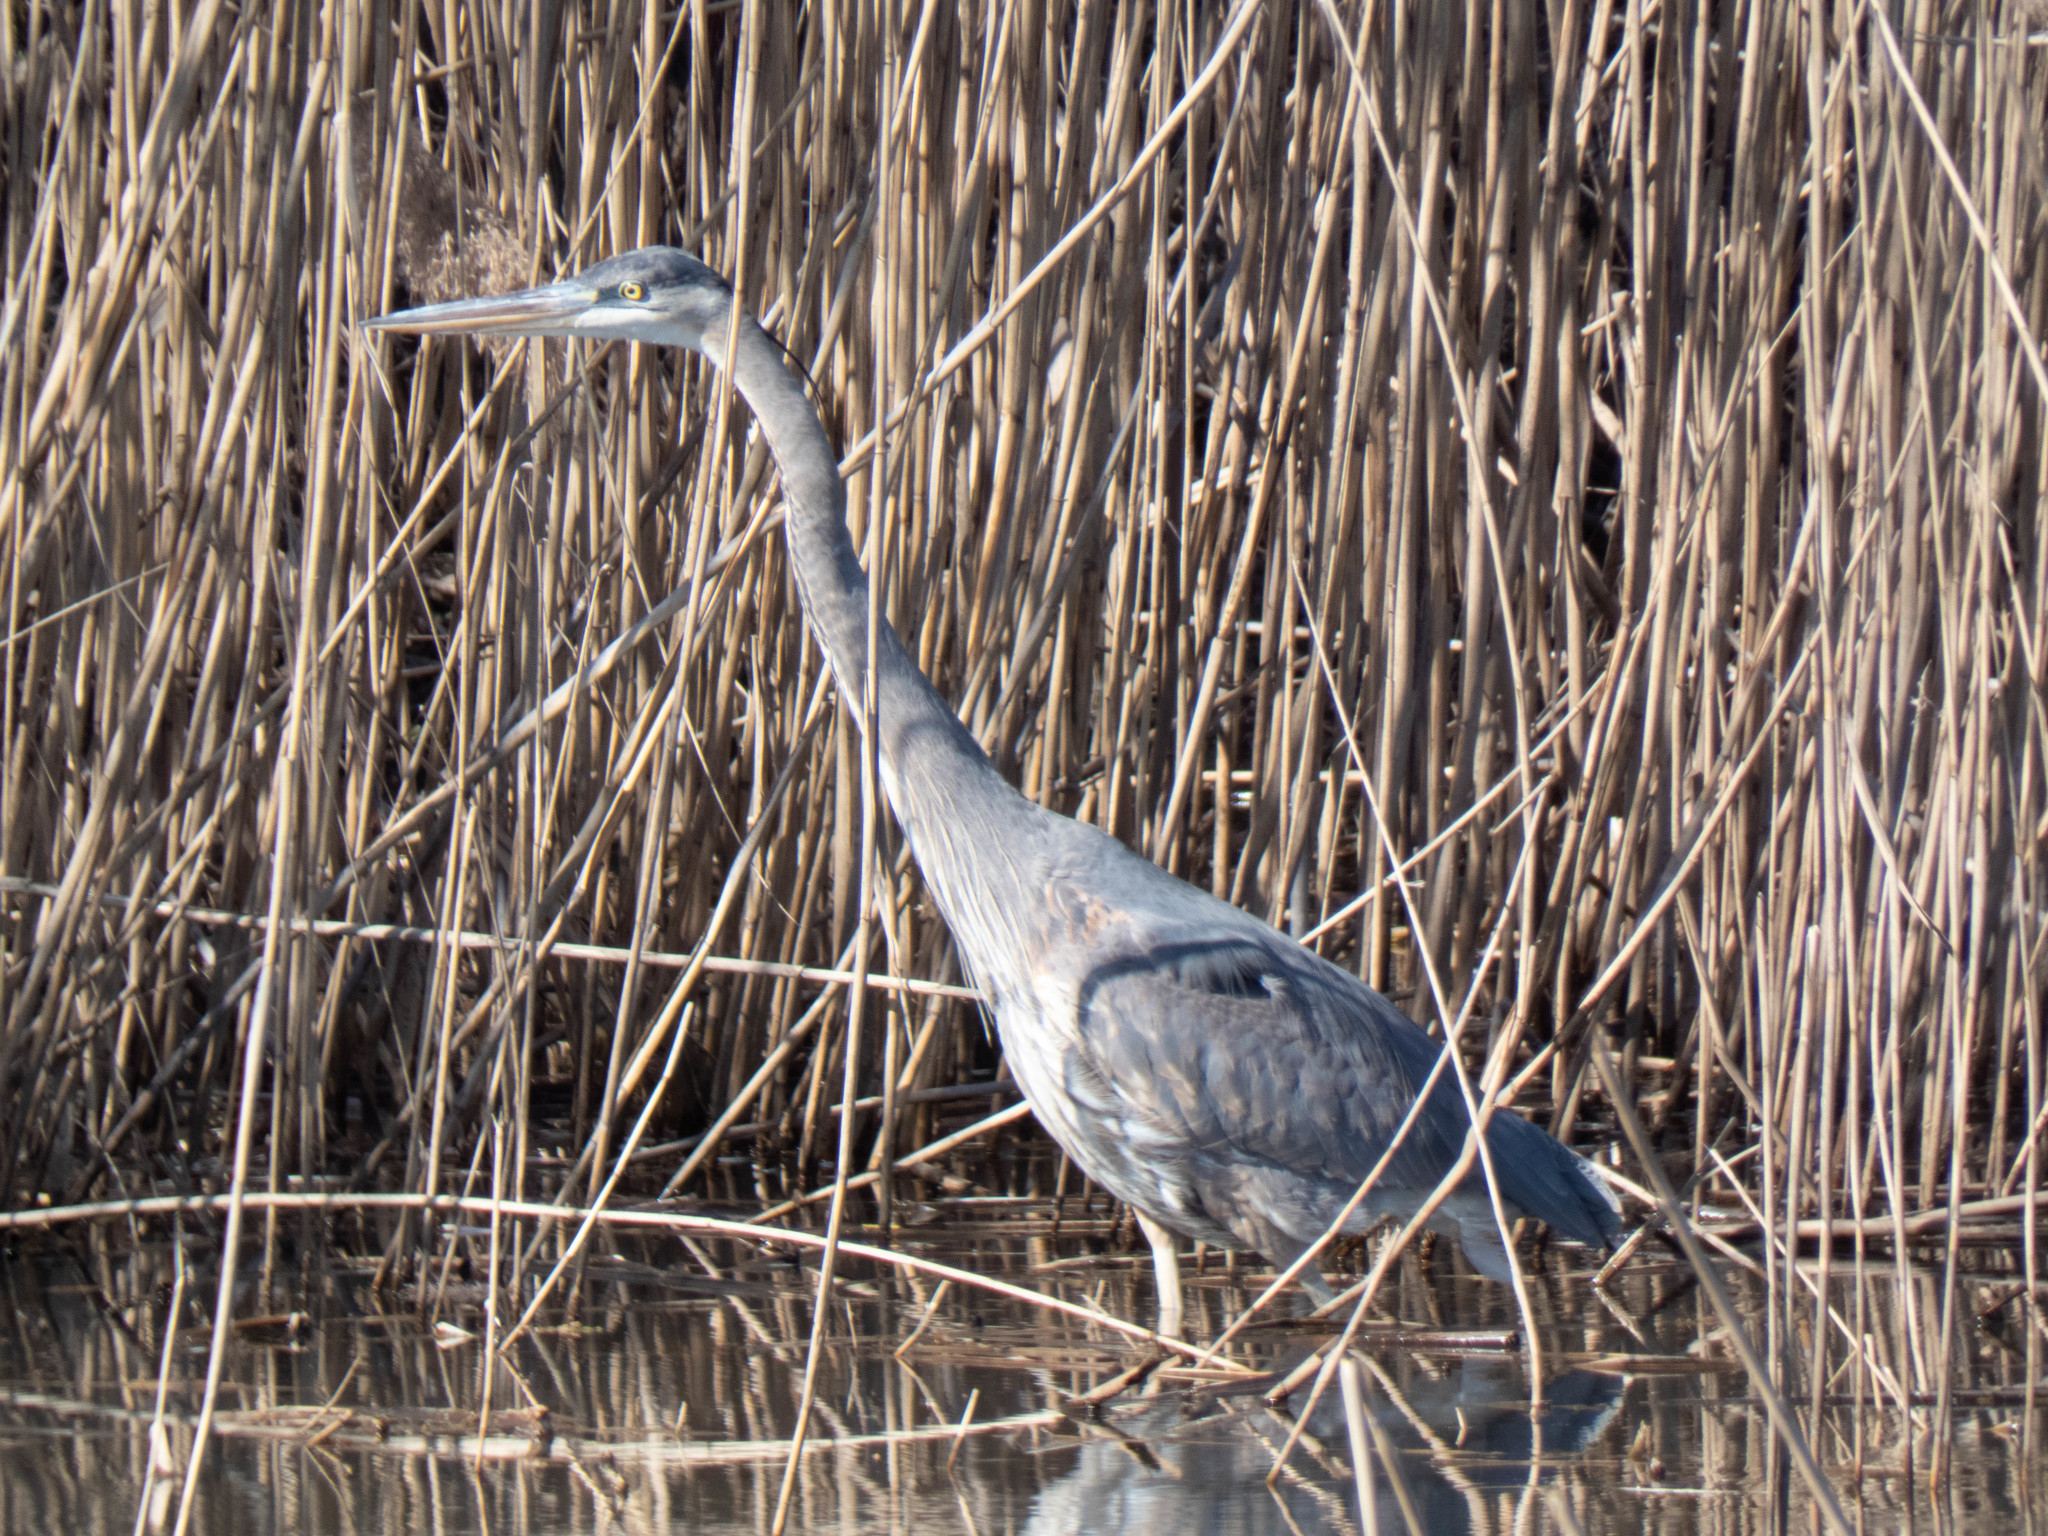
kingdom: Animalia
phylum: Chordata
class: Aves
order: Pelecaniformes
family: Ardeidae
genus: Ardea
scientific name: Ardea herodias
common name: Great blue heron
